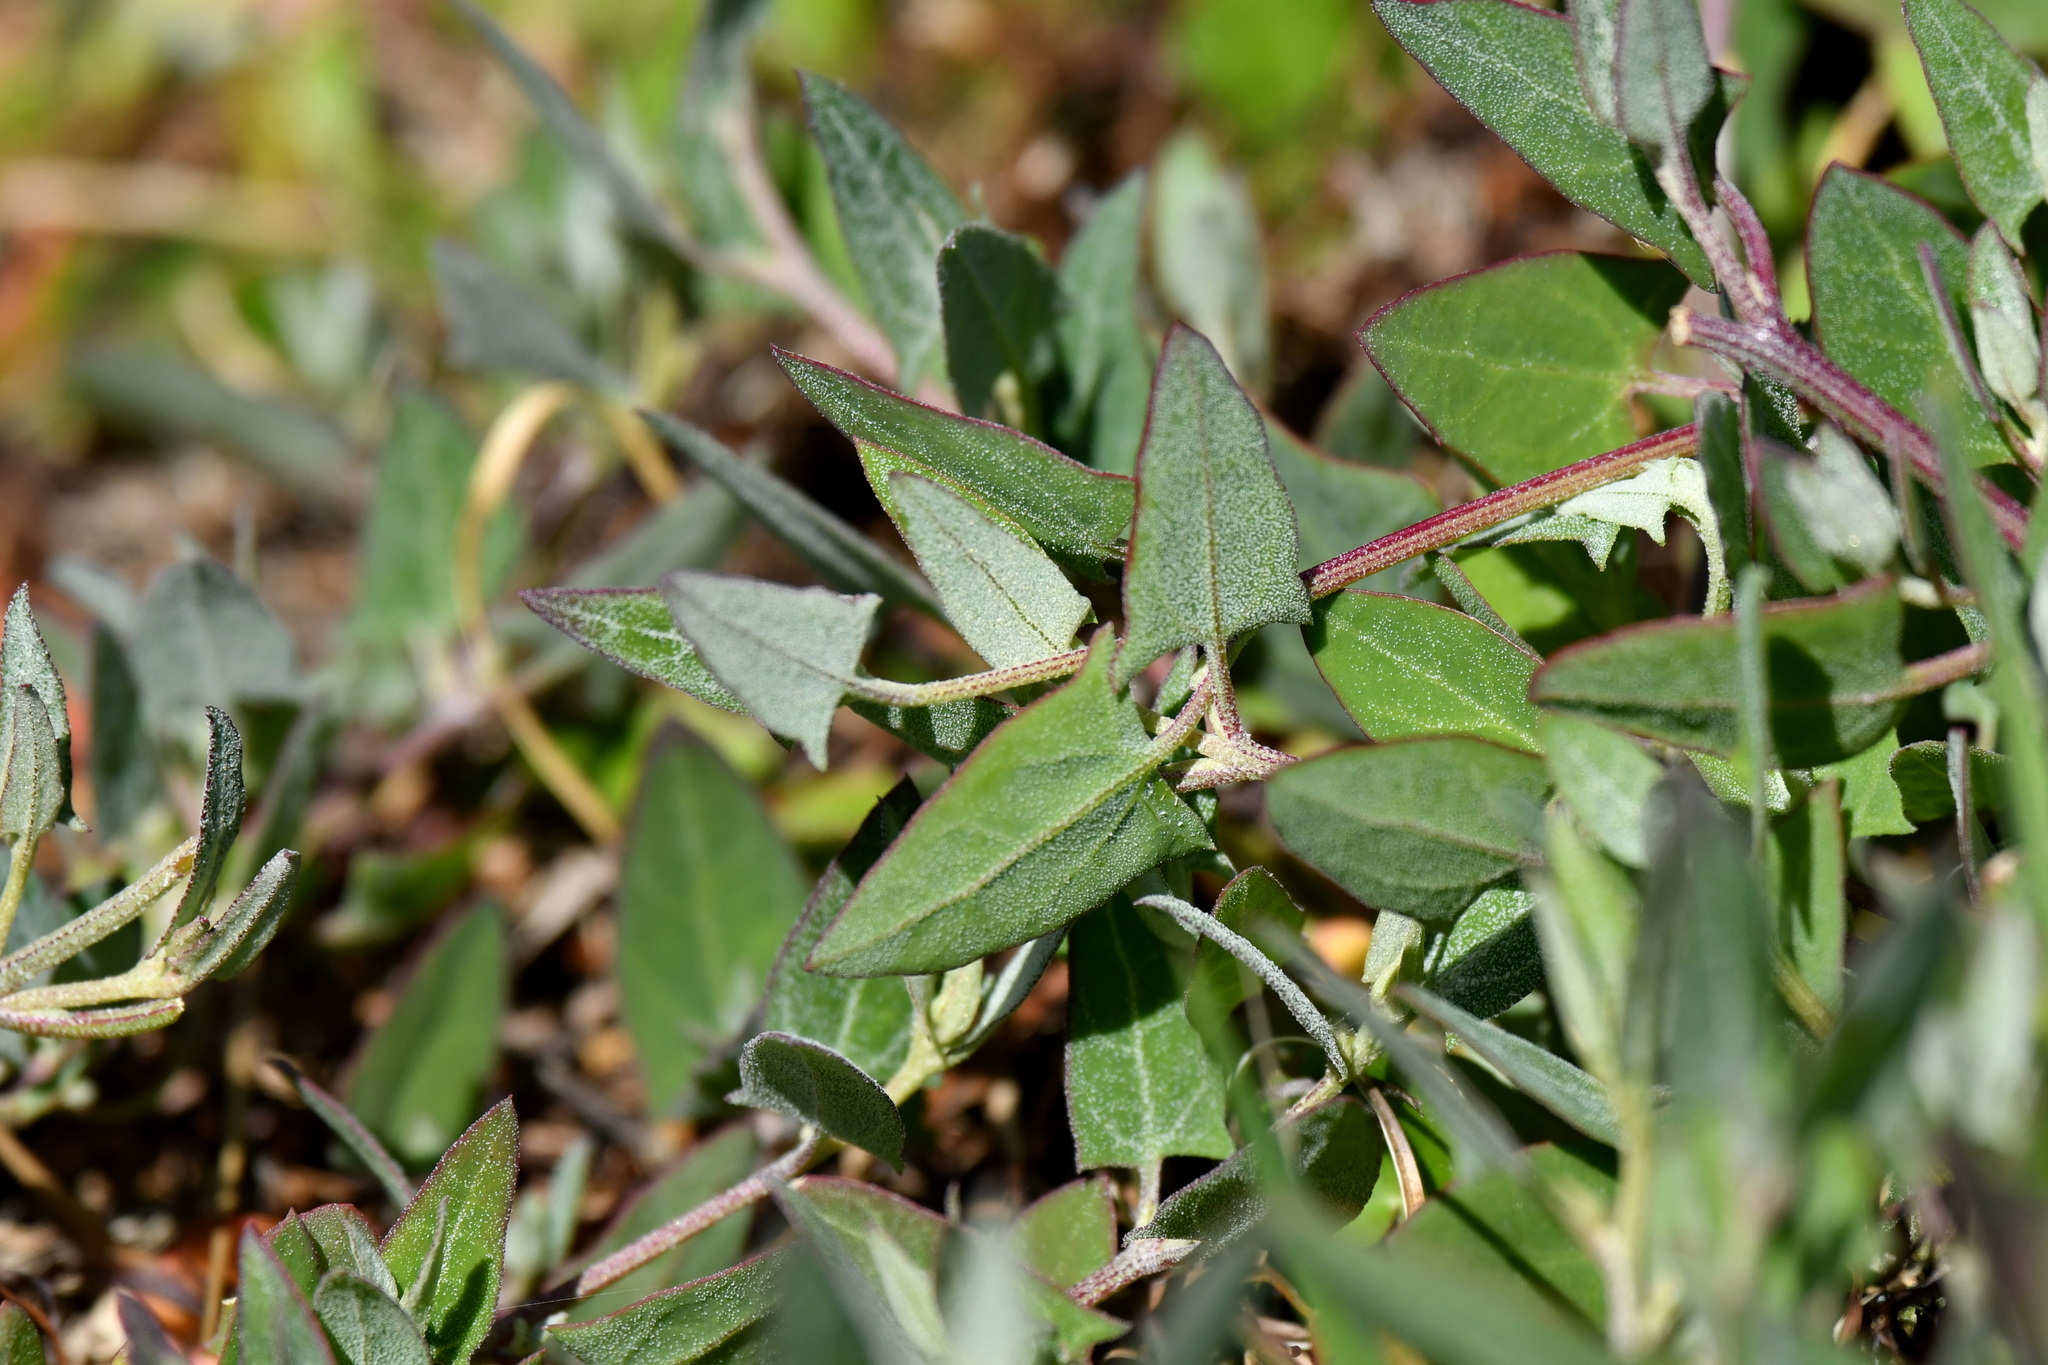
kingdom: Plantae
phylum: Tracheophyta
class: Magnoliopsida
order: Caryophyllales
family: Amaranthaceae
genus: Atriplex
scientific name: Atriplex prostrata
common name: Spear-leaved orache
